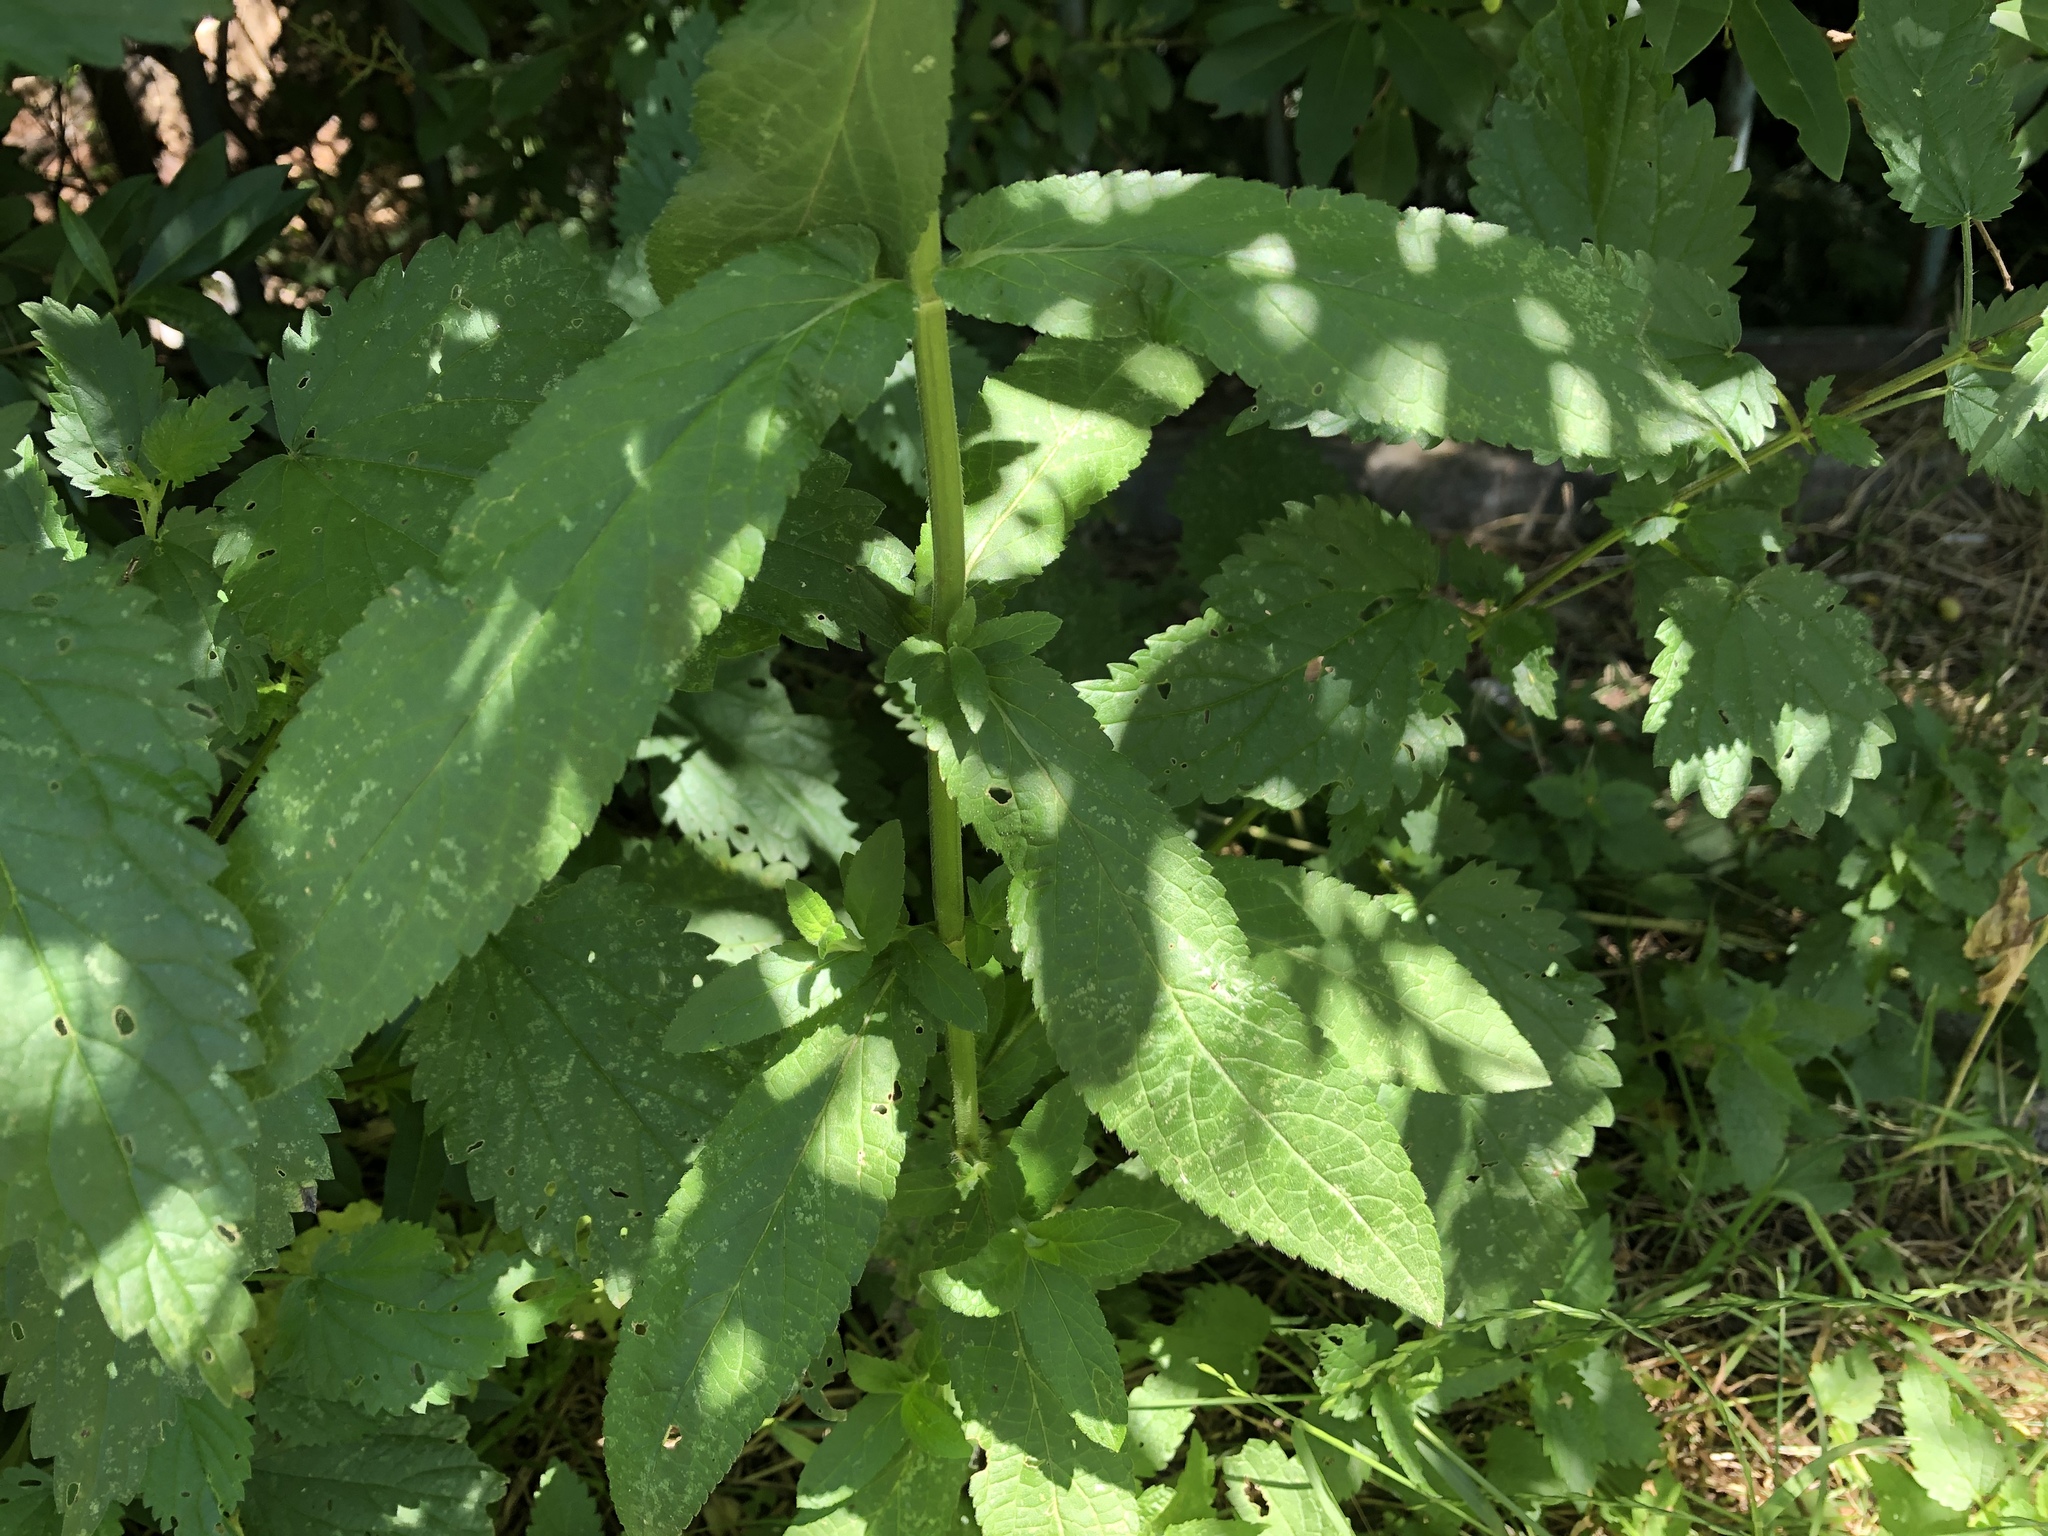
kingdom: Plantae
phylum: Tracheophyta
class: Magnoliopsida
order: Lamiales
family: Lamiaceae
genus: Stachys
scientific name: Stachys palustris
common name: Marsh woundwort
